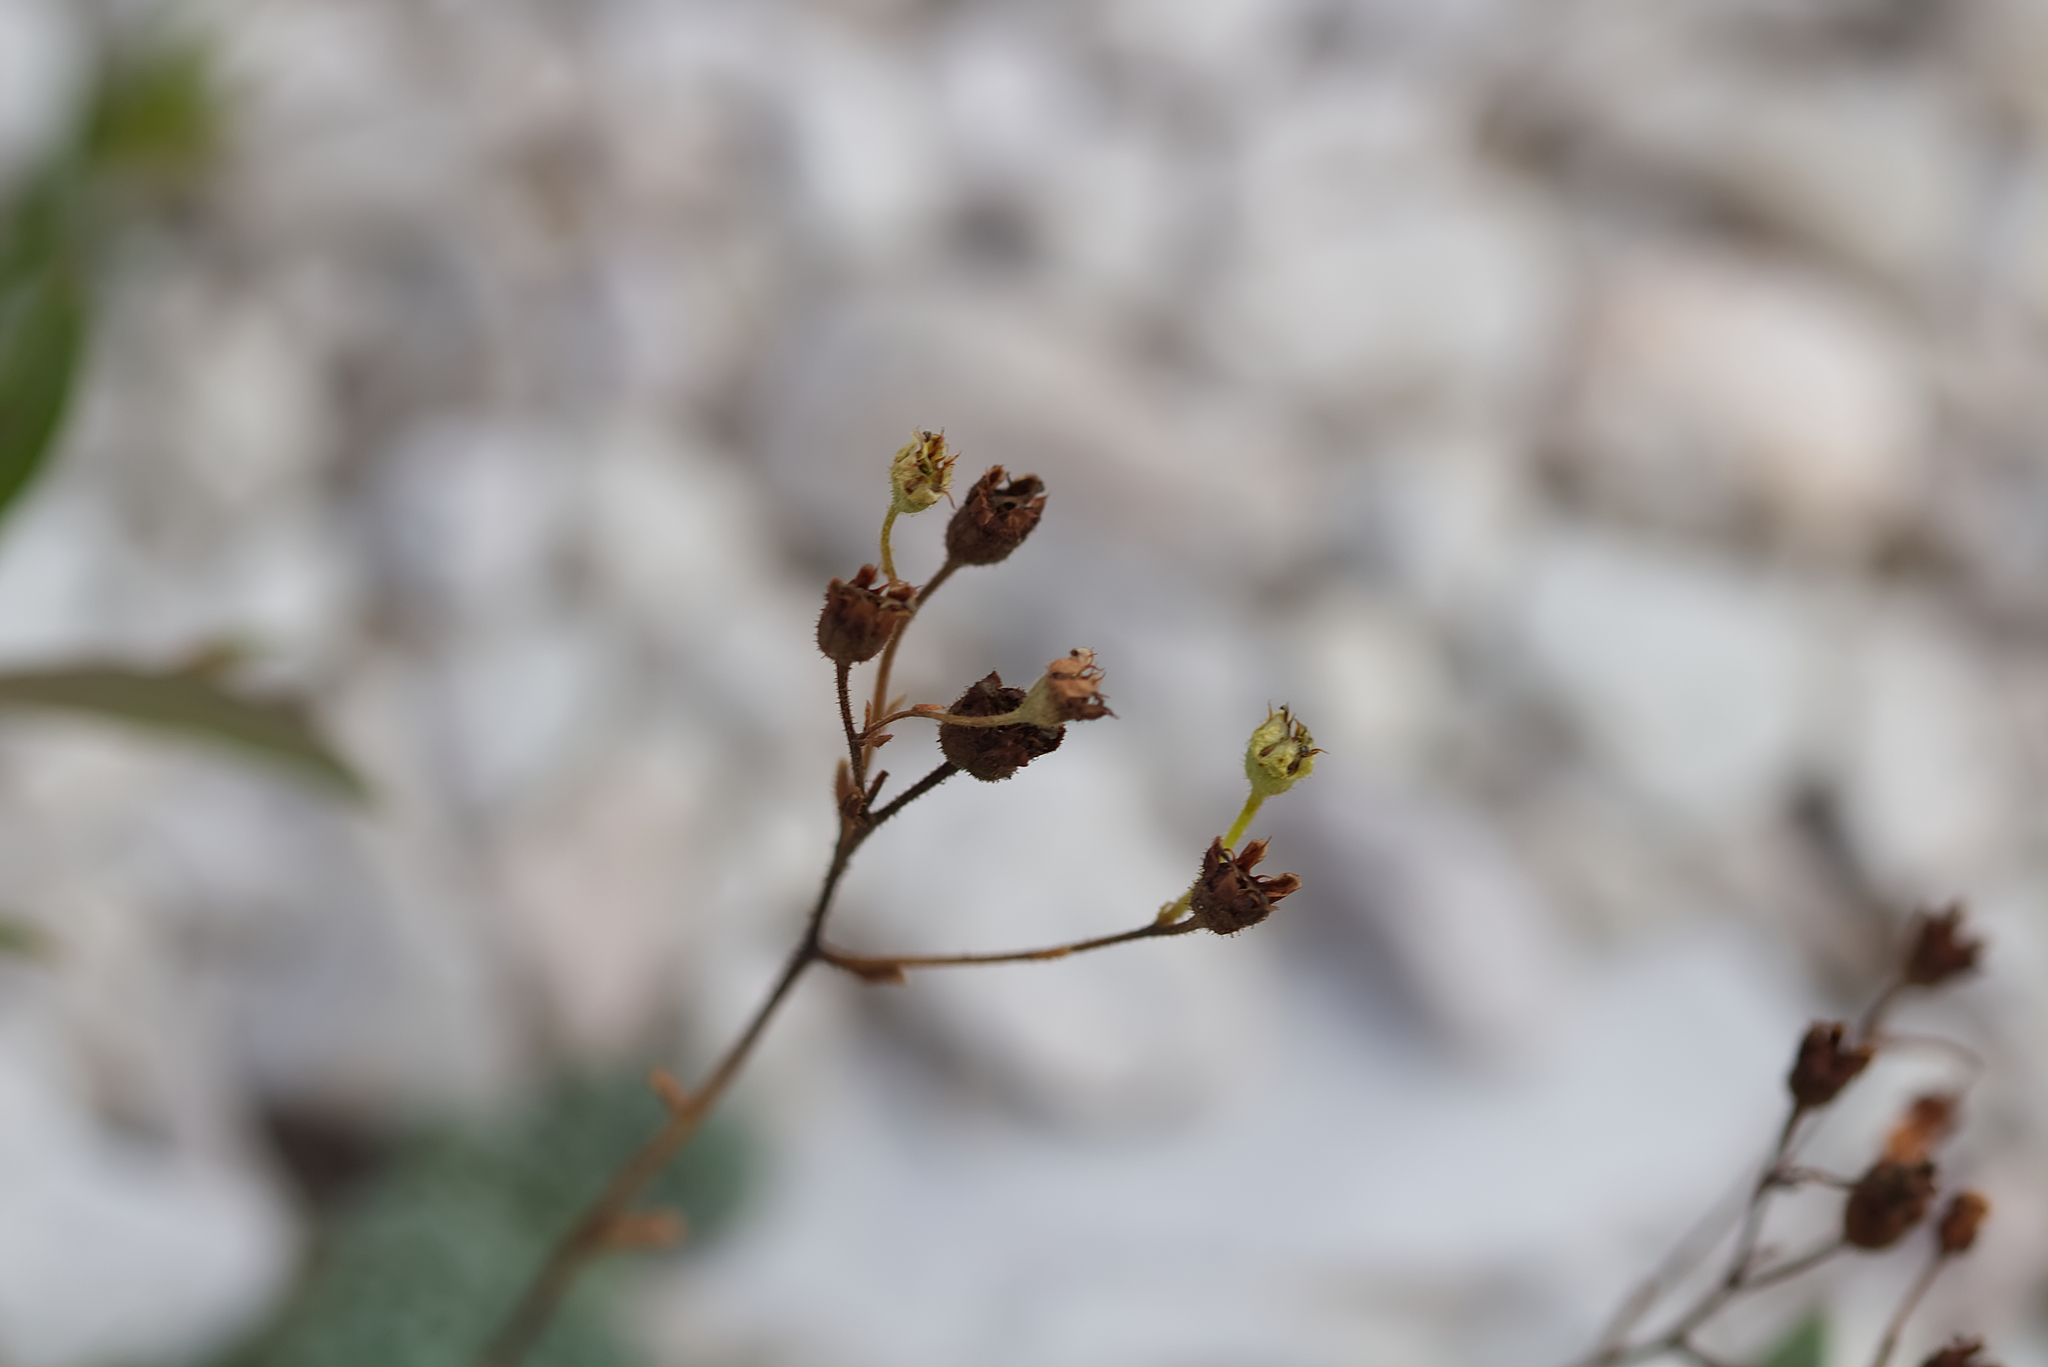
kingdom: Plantae
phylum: Tracheophyta
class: Magnoliopsida
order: Saxifragales
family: Saxifragaceae
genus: Saxifraga
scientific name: Saxifraga caesia
